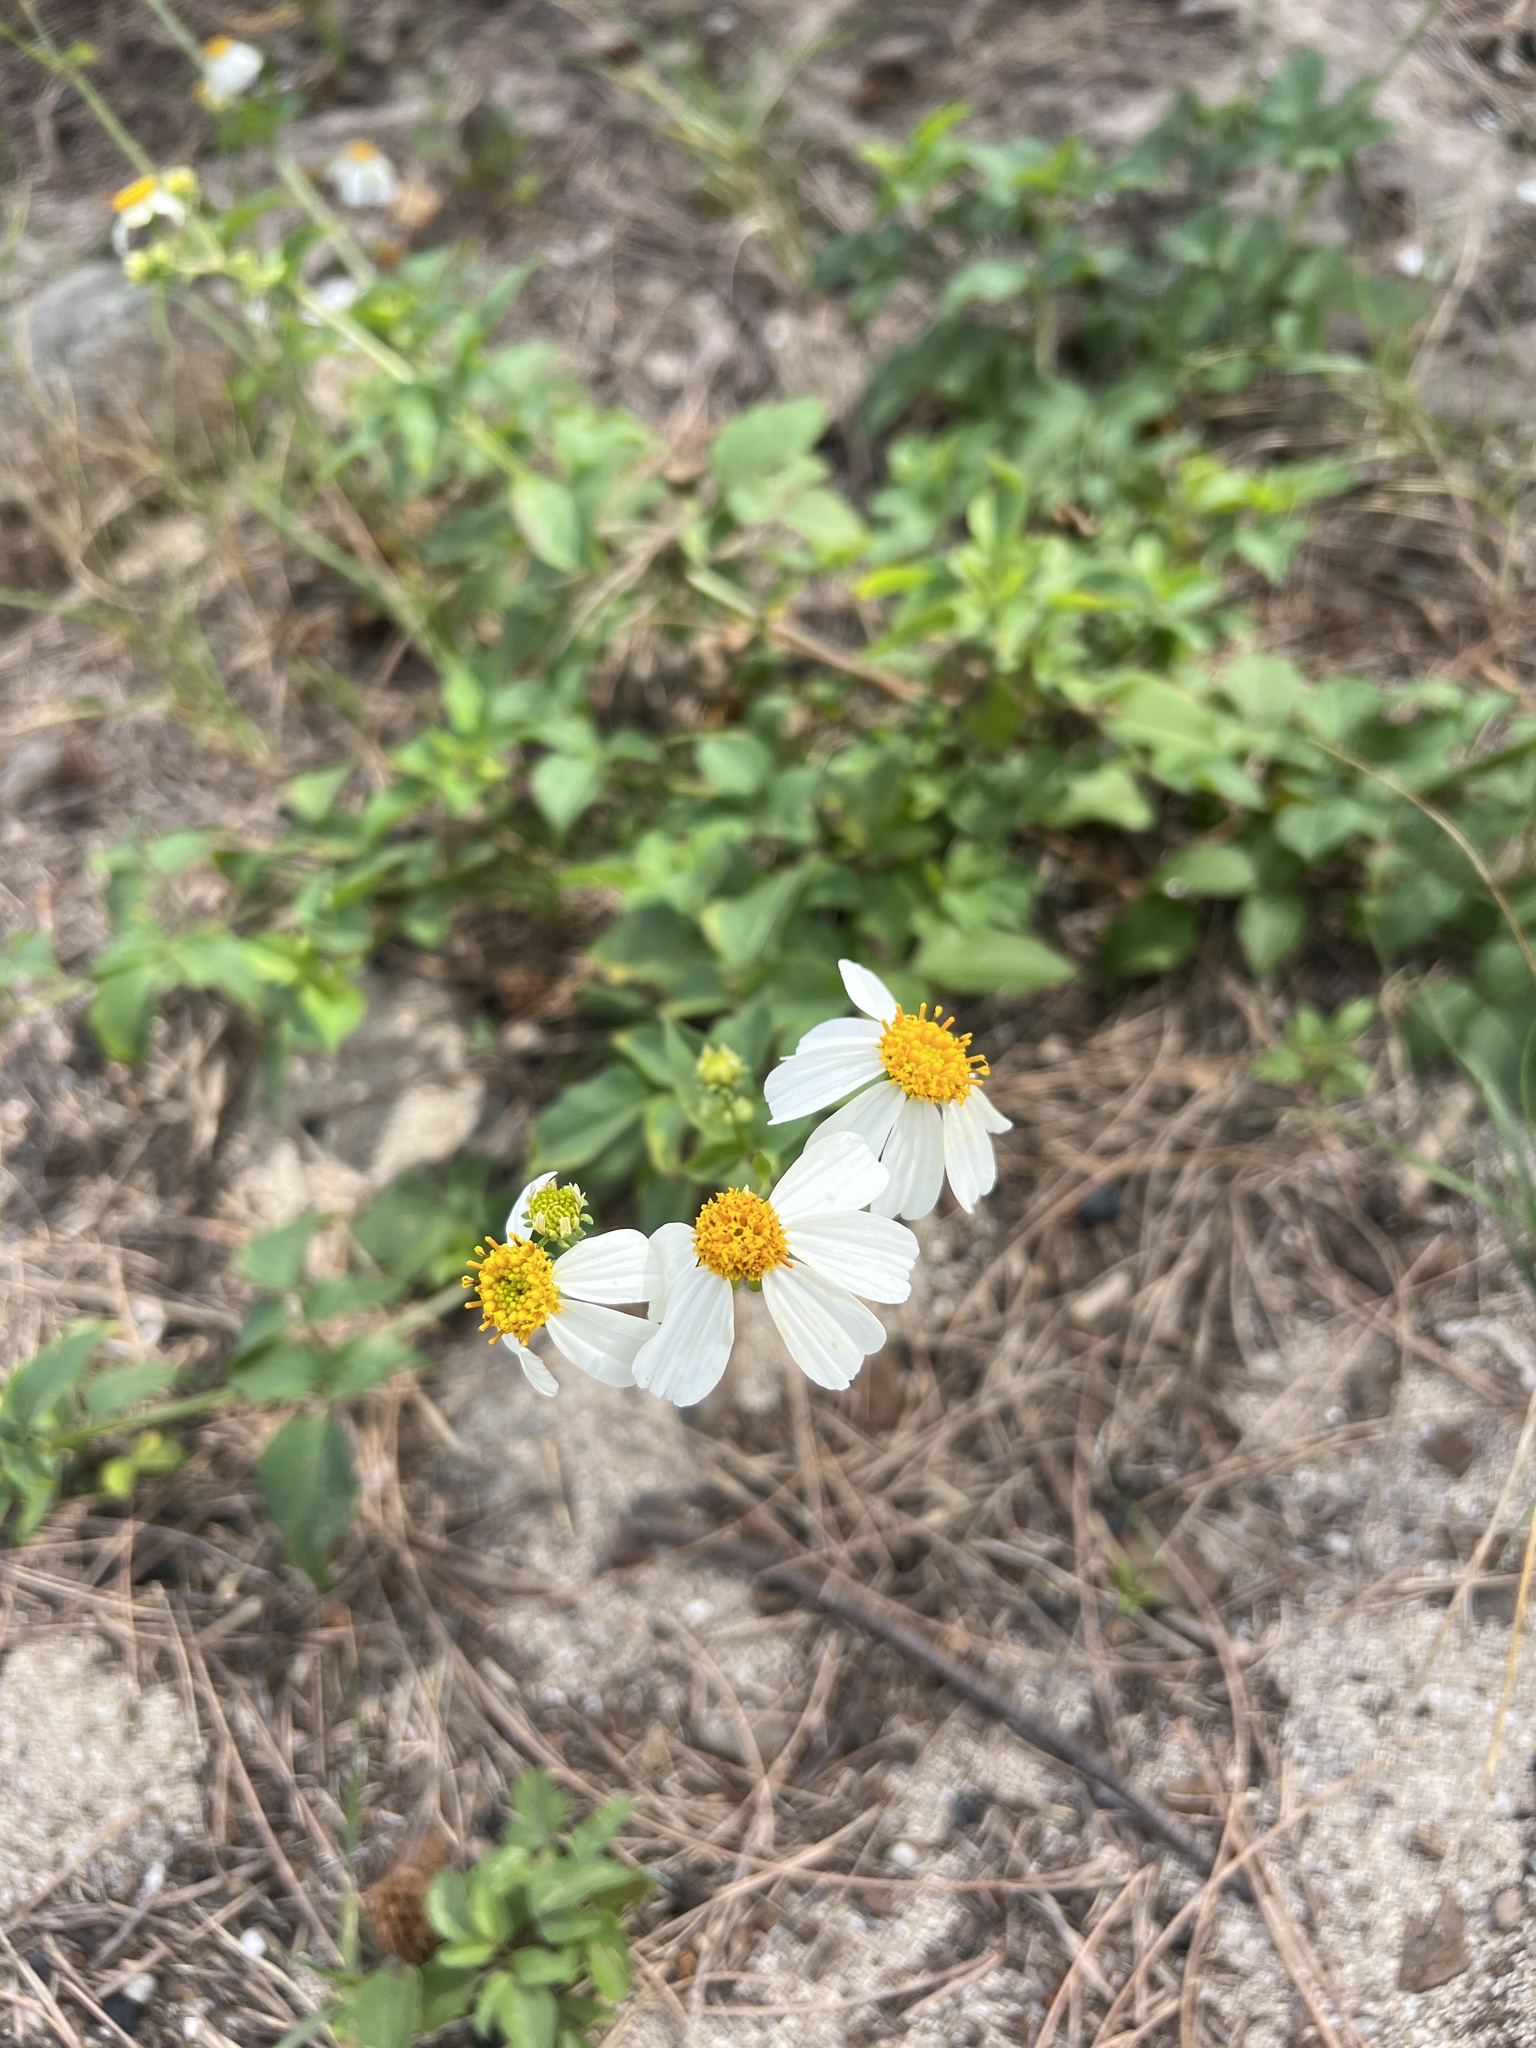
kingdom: Plantae
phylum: Tracheophyta
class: Magnoliopsida
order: Asterales
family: Asteraceae
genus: Bidens
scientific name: Bidens alba
